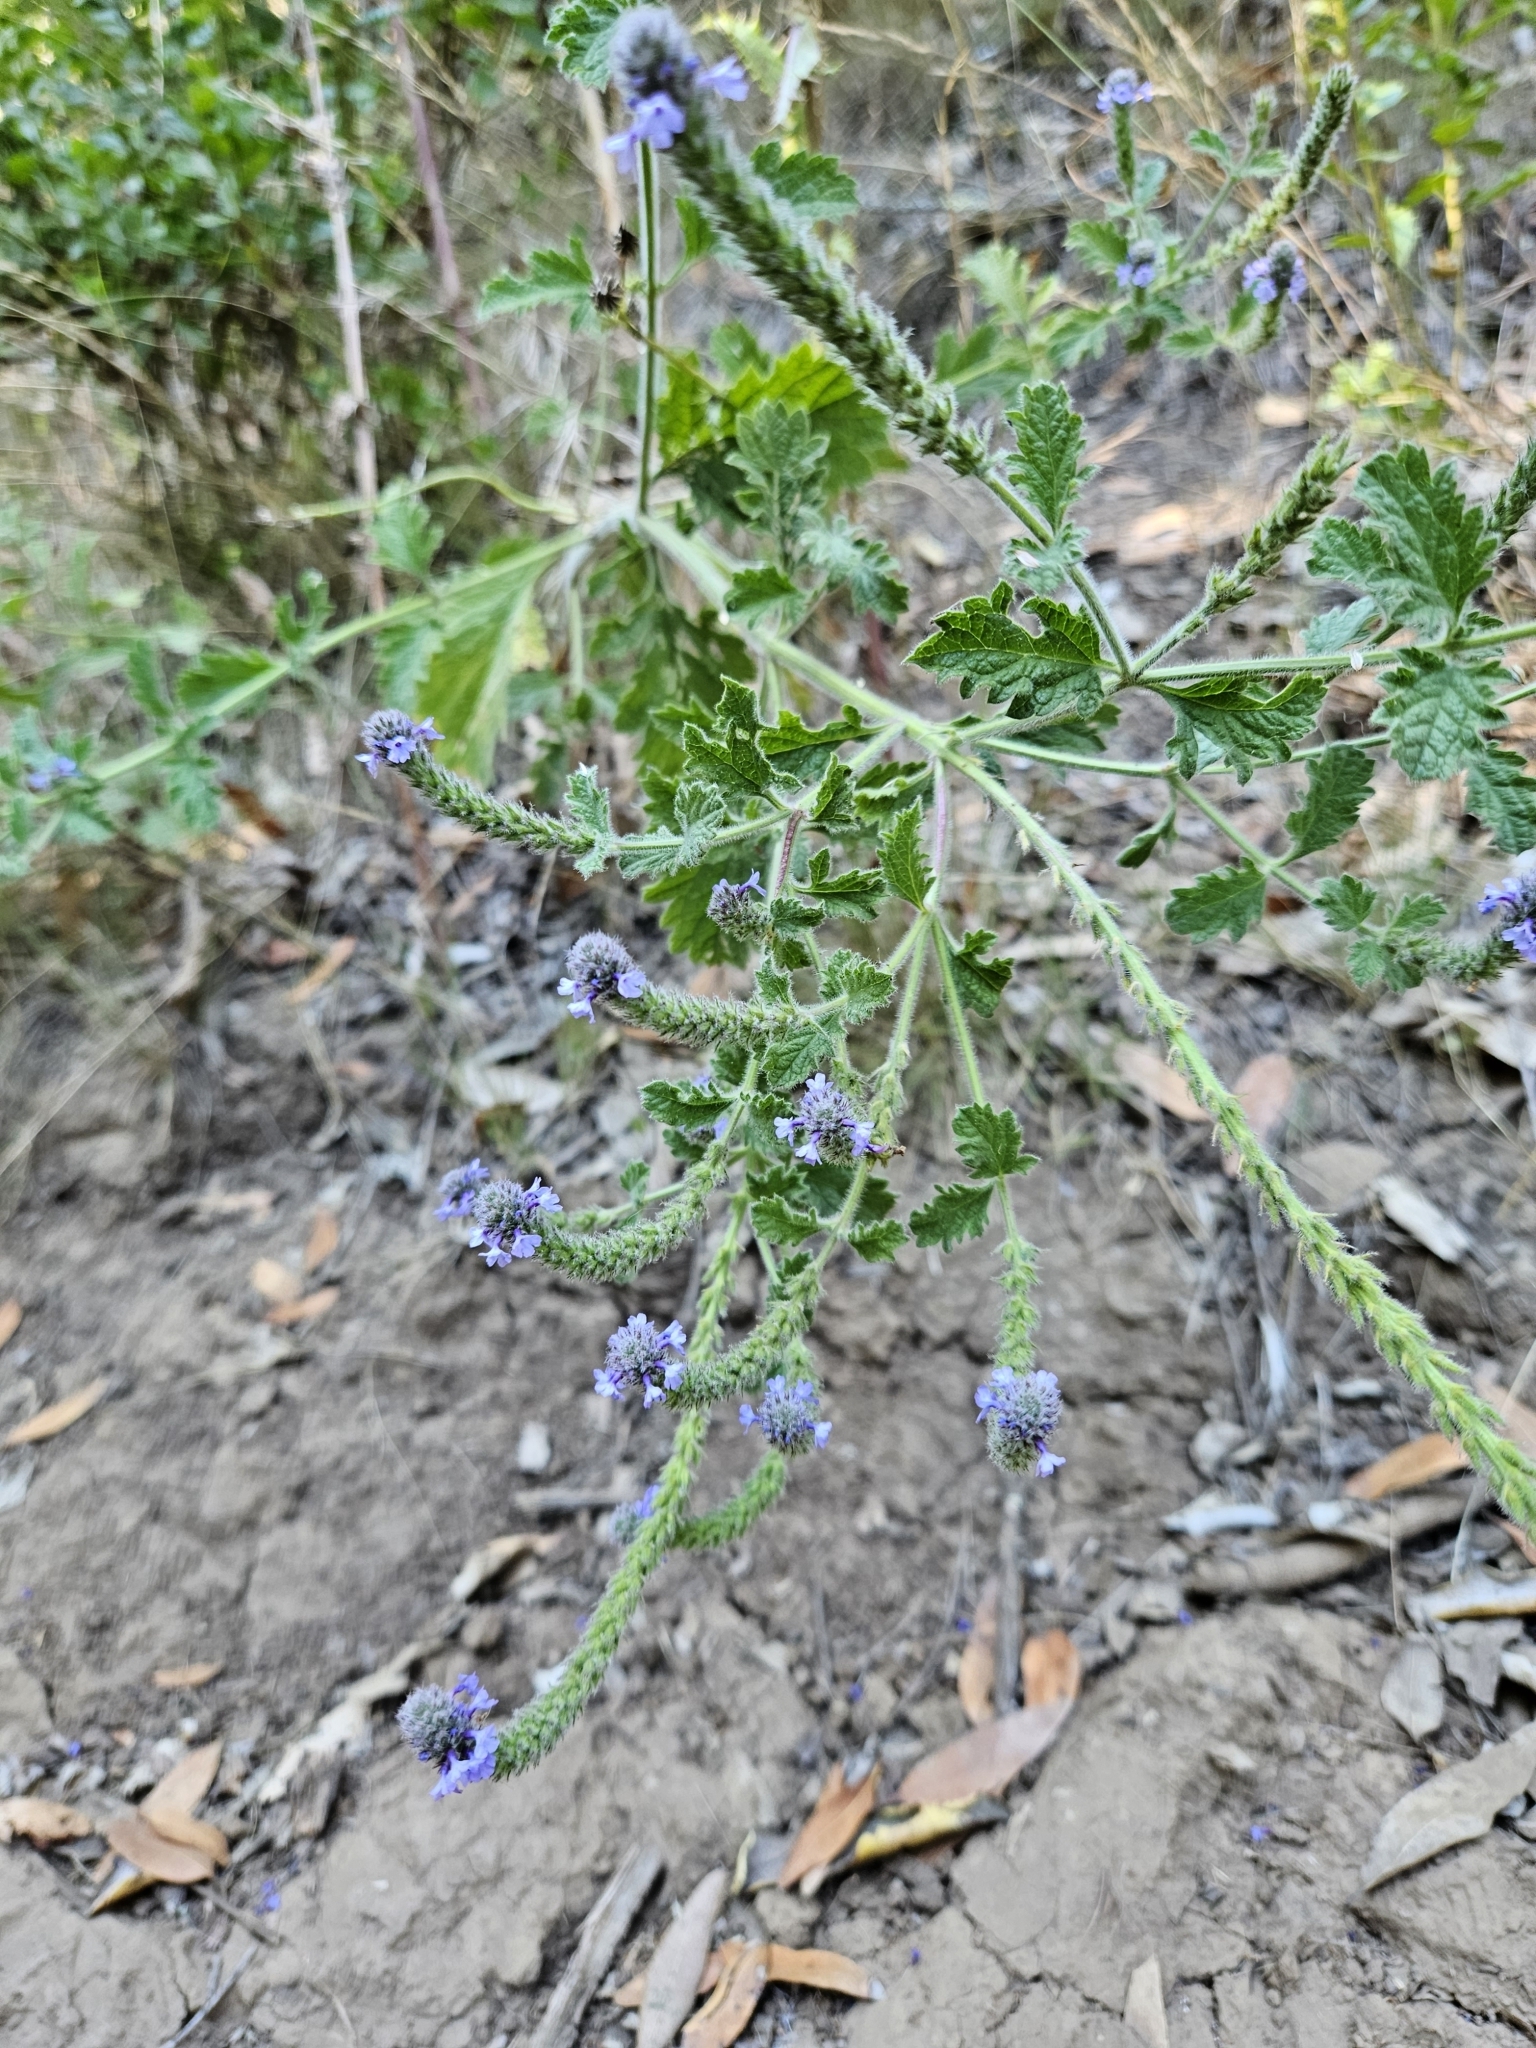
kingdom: Plantae
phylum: Tracheophyta
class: Magnoliopsida
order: Lamiales
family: Verbenaceae
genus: Verbena
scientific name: Verbena lasiostachys
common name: Vervain
